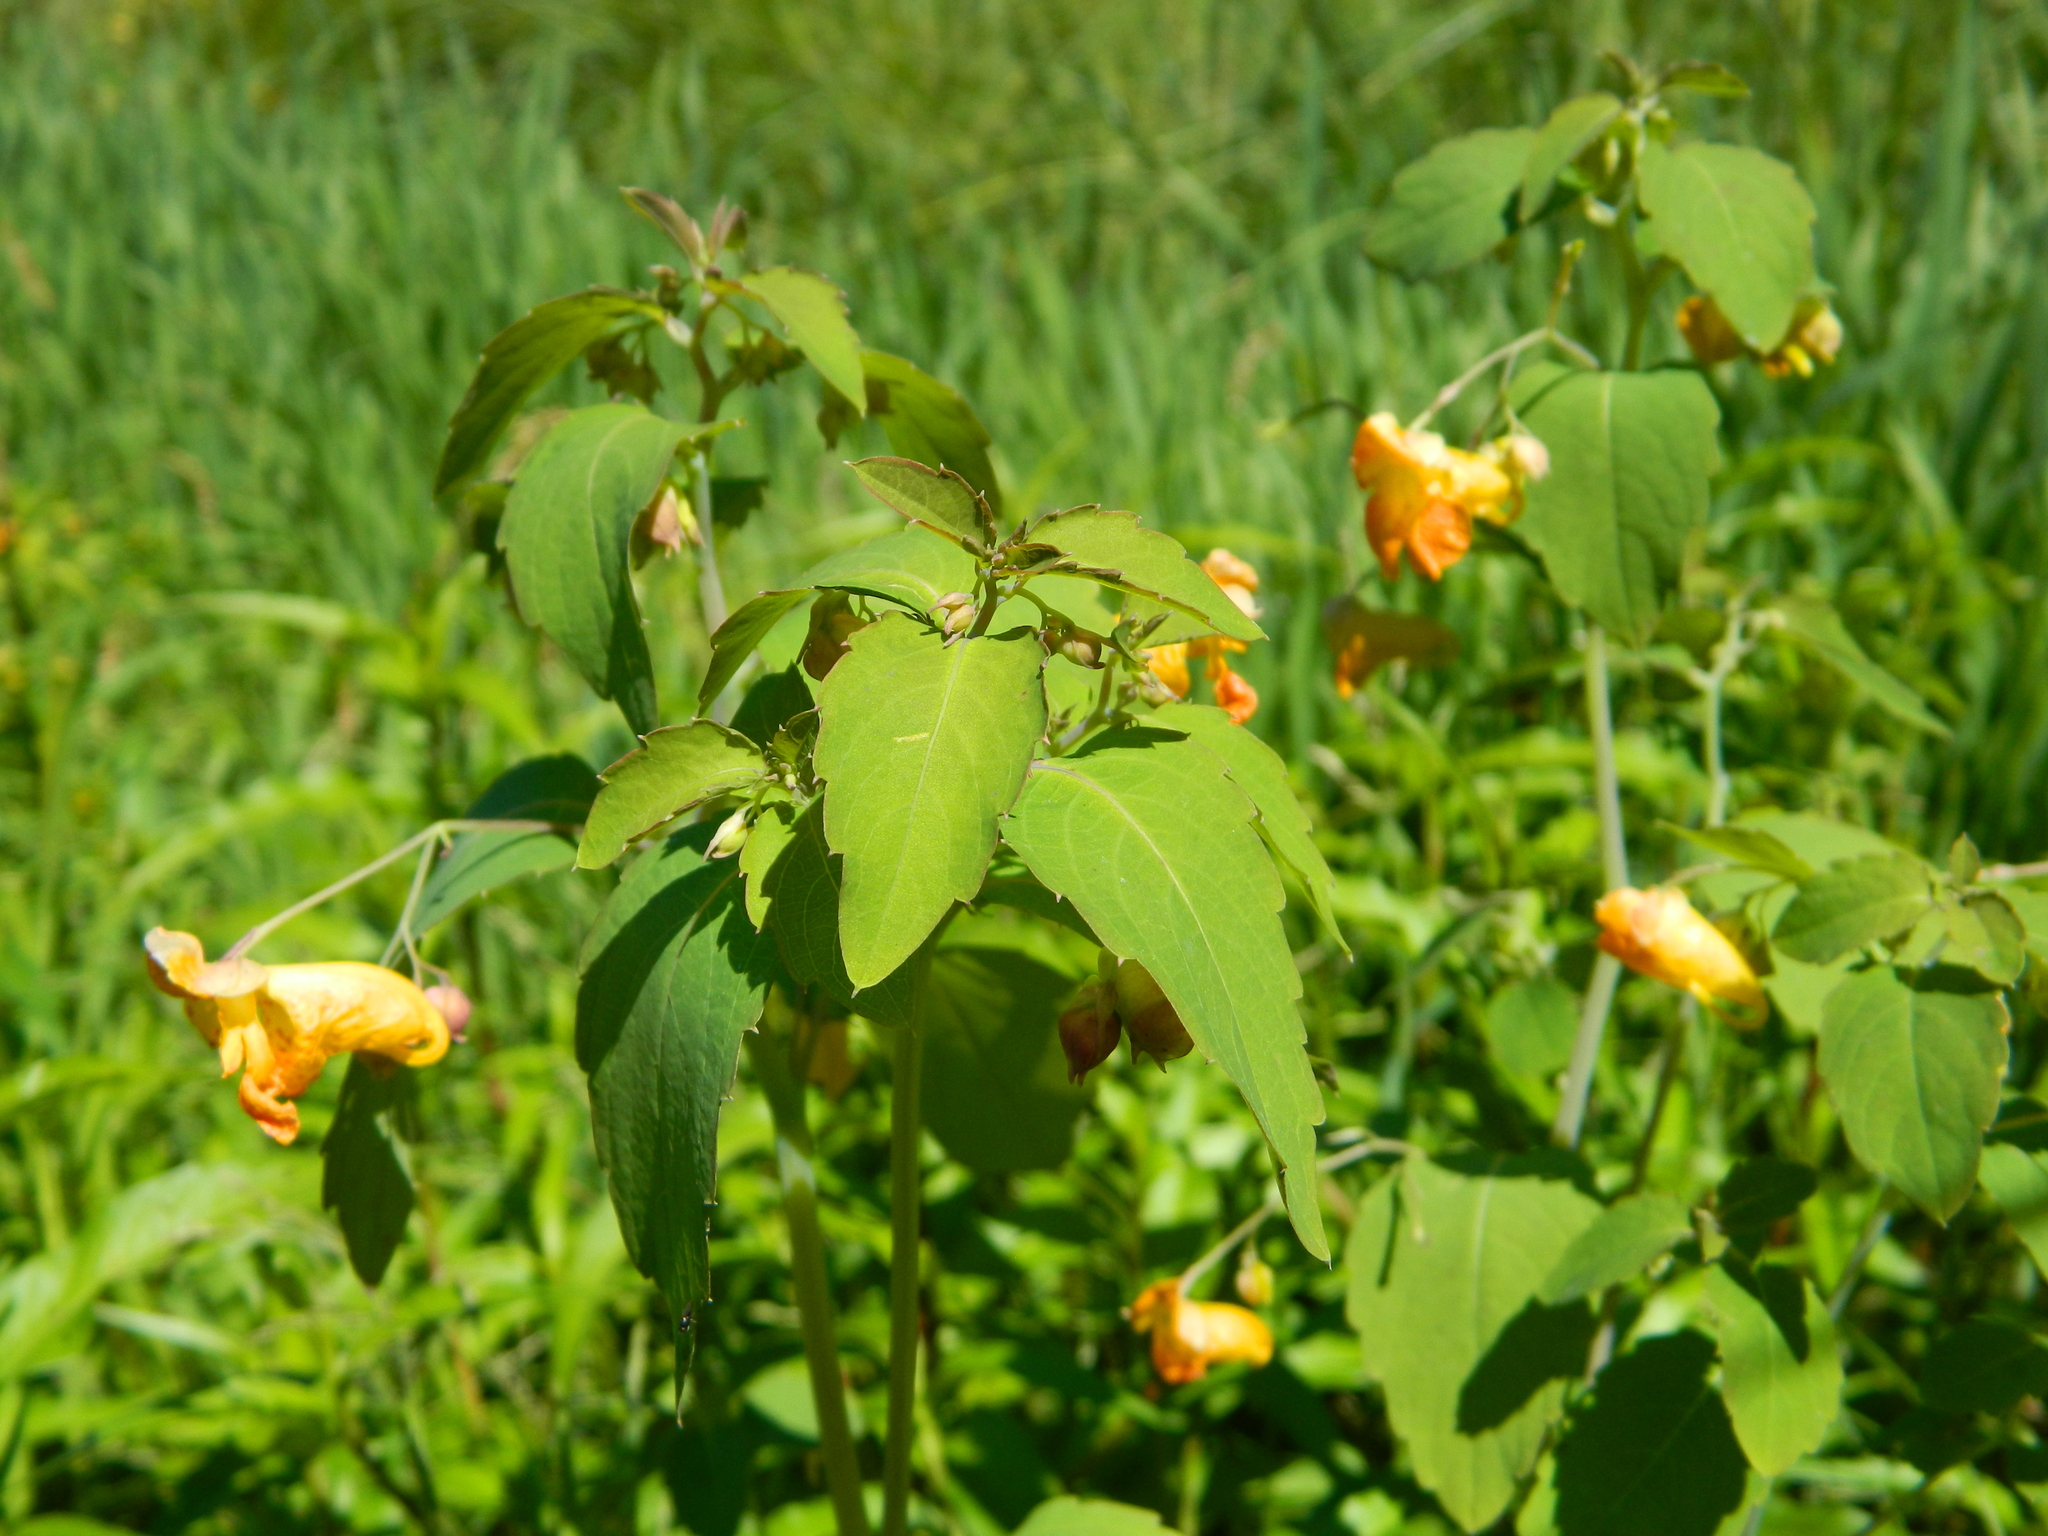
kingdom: Plantae
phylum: Tracheophyta
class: Magnoliopsida
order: Ericales
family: Balsaminaceae
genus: Impatiens
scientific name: Impatiens capensis
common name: Orange balsam
